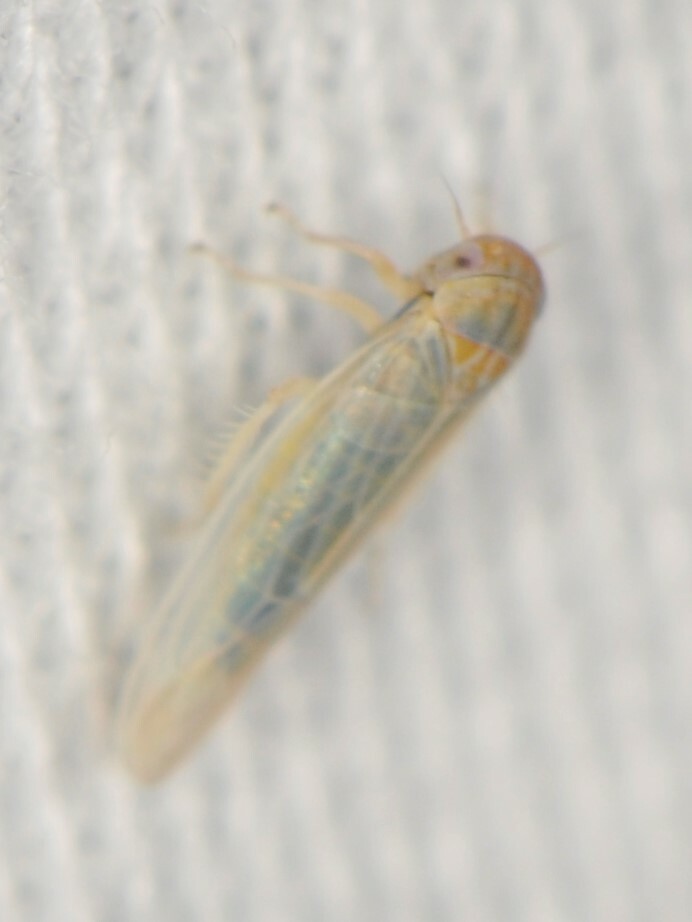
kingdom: Animalia
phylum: Arthropoda
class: Insecta
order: Hemiptera
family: Cicadellidae
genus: Balclutha
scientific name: Balclutha
